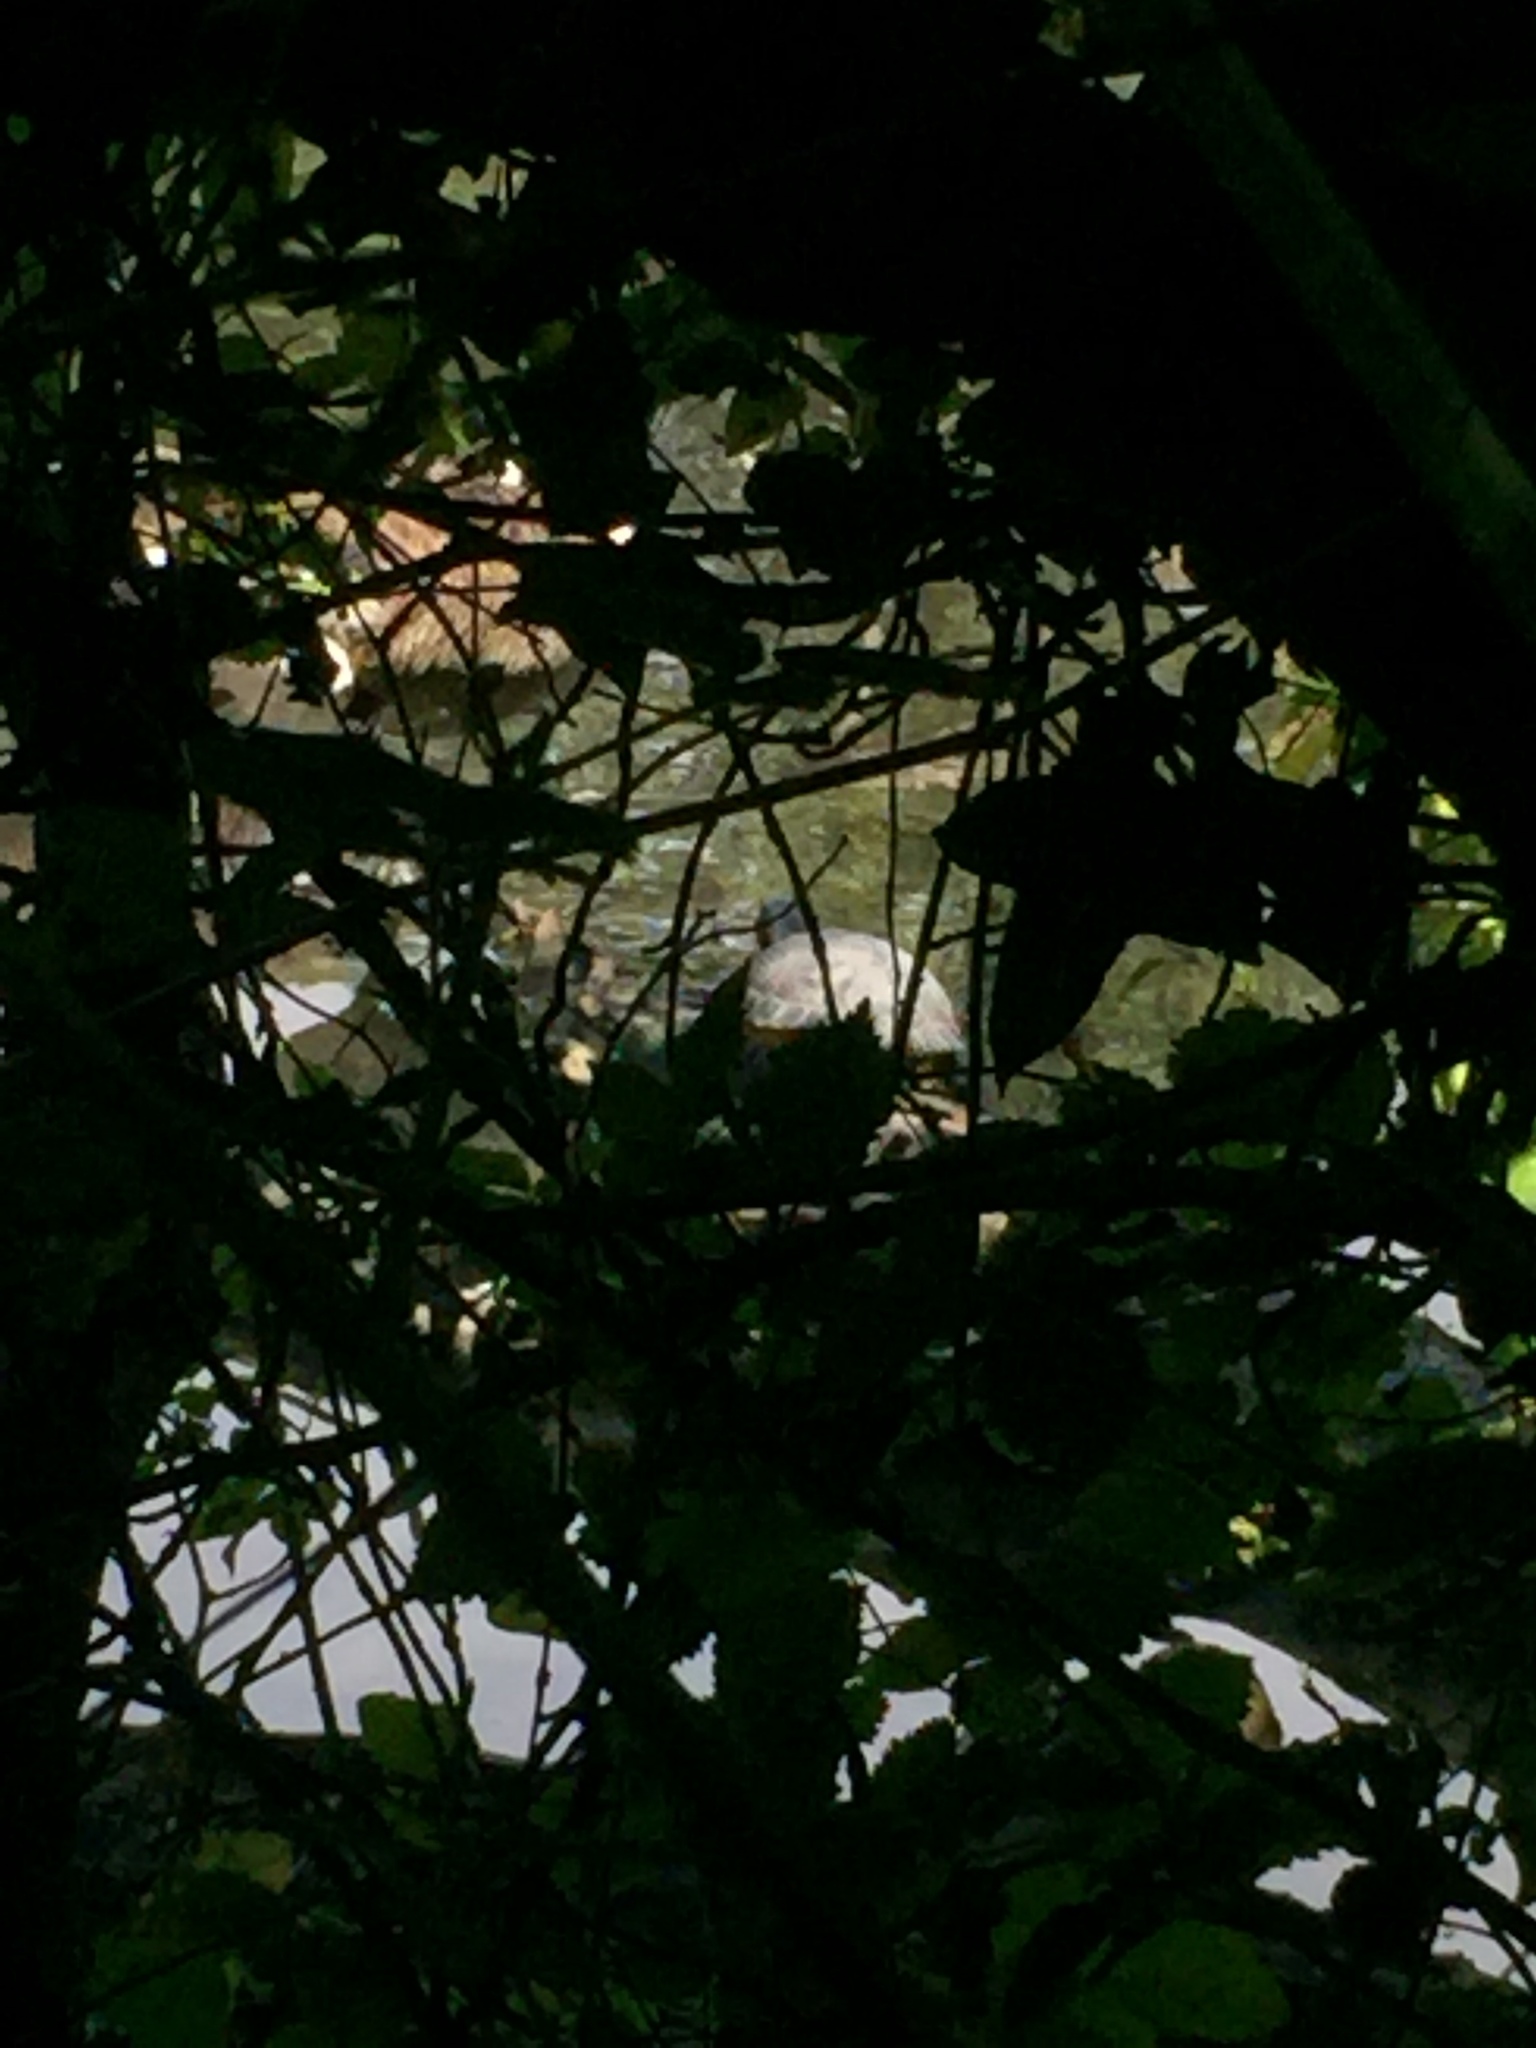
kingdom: Animalia
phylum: Chordata
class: Testudines
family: Emydidae
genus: Trachemys
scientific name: Trachemys scripta
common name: Slider
